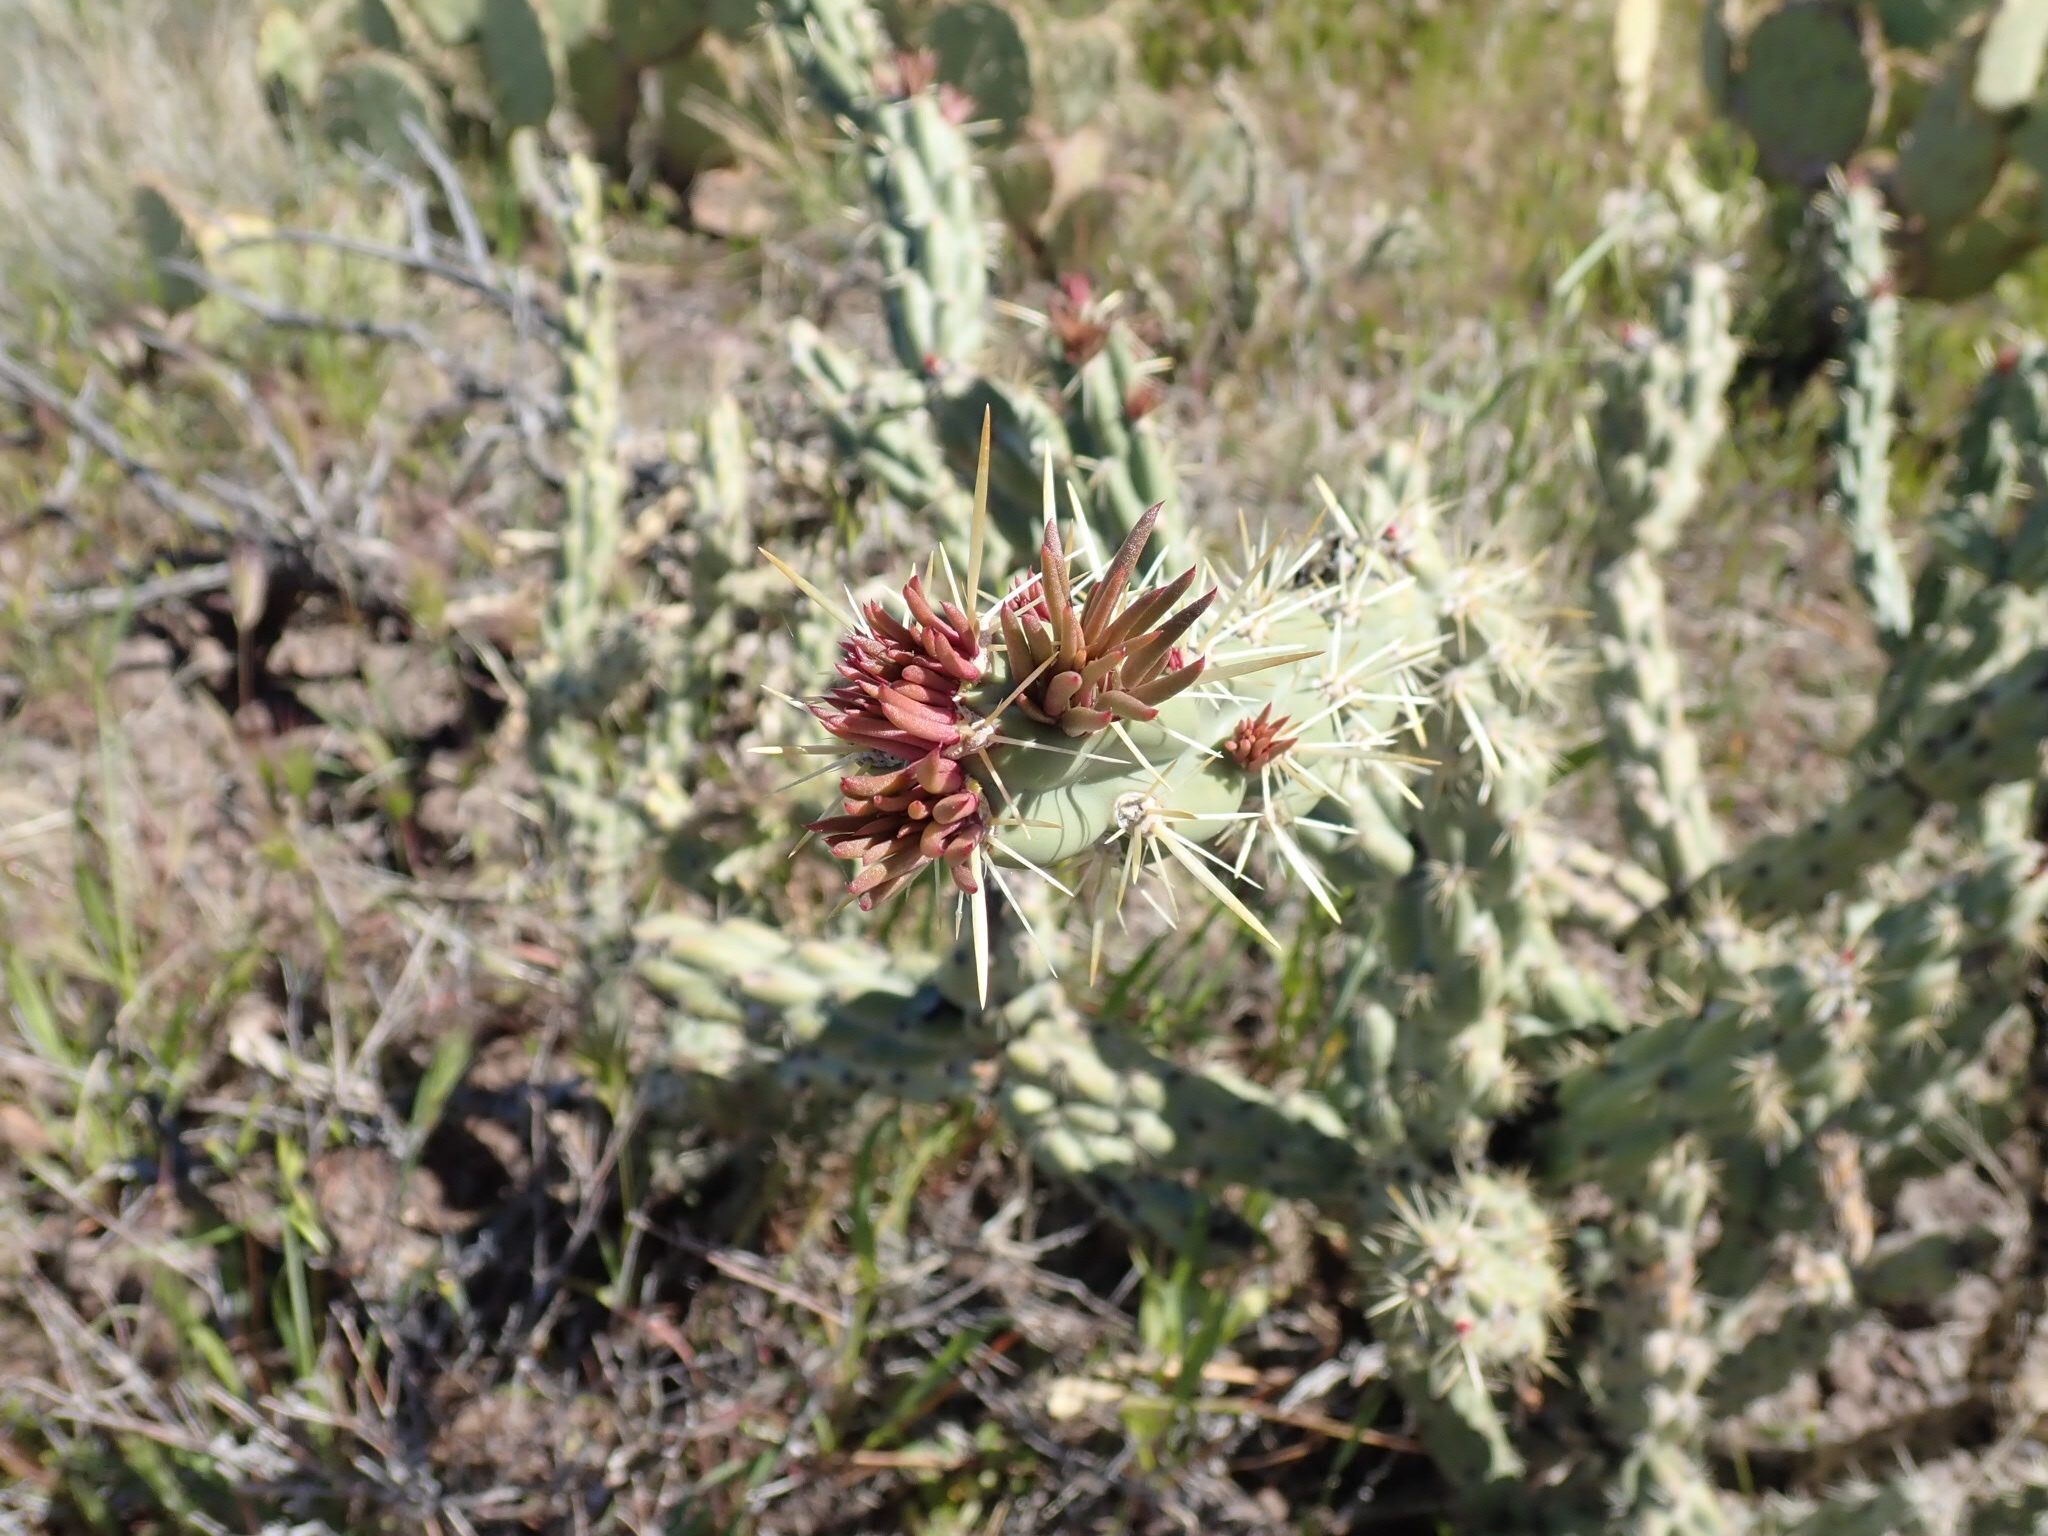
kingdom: Plantae
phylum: Tracheophyta
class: Magnoliopsida
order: Caryophyllales
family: Cactaceae
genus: Cylindropuntia
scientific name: Cylindropuntia acanthocarpa
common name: Buckhorn cholla
